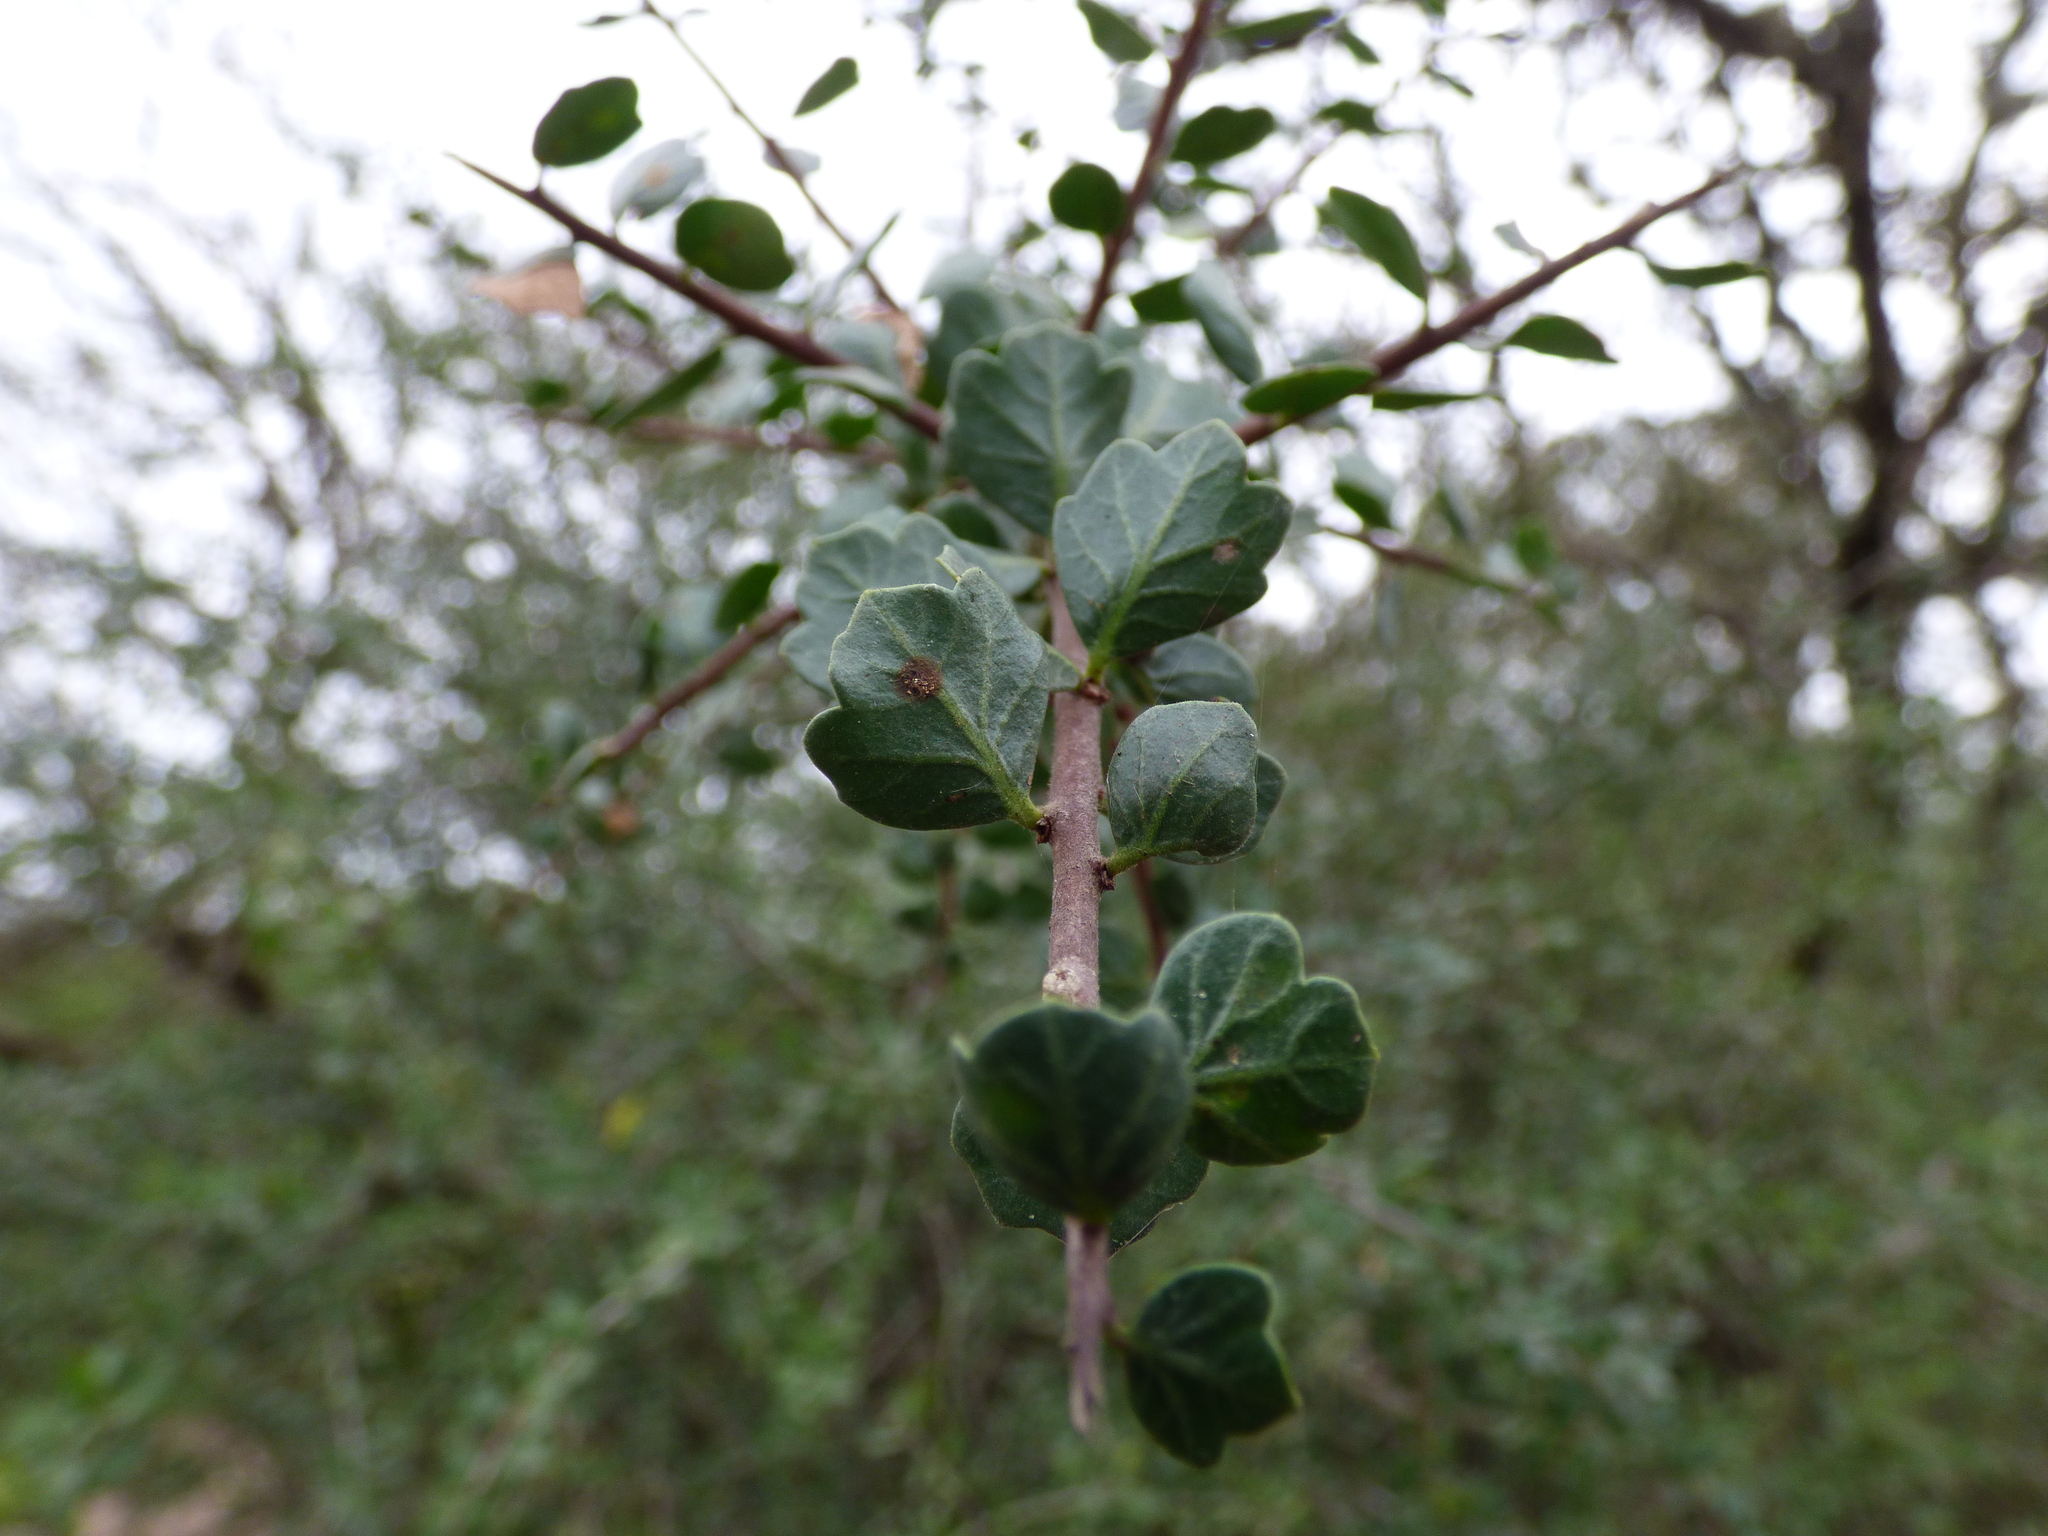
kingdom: Plantae
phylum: Tracheophyta
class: Magnoliopsida
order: Sapindales
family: Anacardiaceae
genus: Schinus
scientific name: Schinus fasciculata
